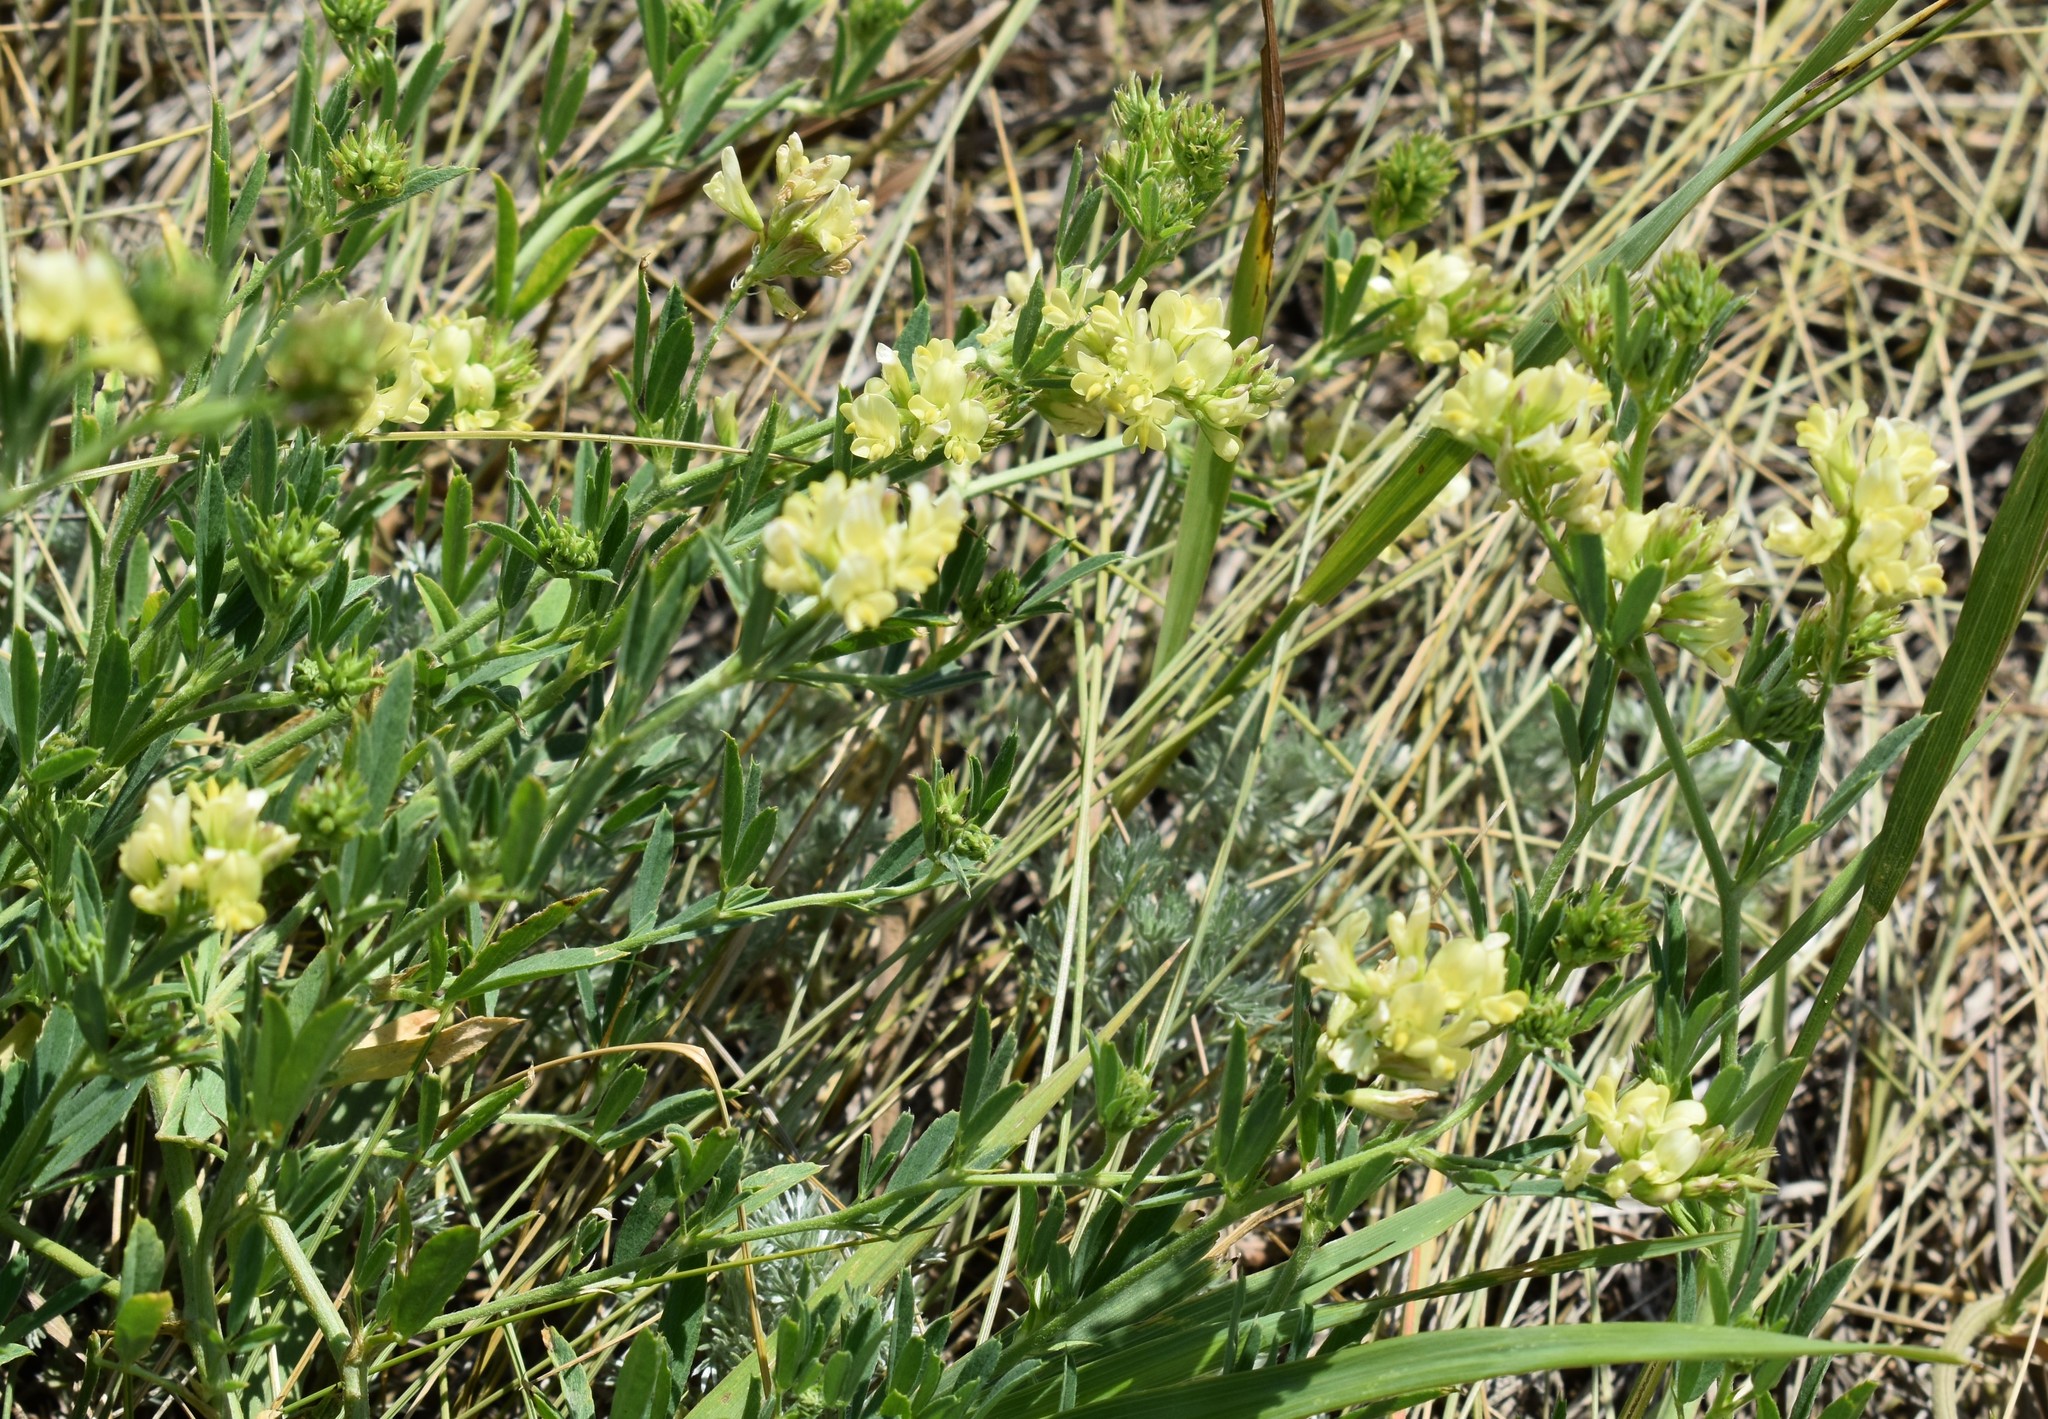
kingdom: Plantae
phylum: Tracheophyta
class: Magnoliopsida
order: Fabales
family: Fabaceae
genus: Medicago
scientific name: Medicago falcata
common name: Sickle medick
